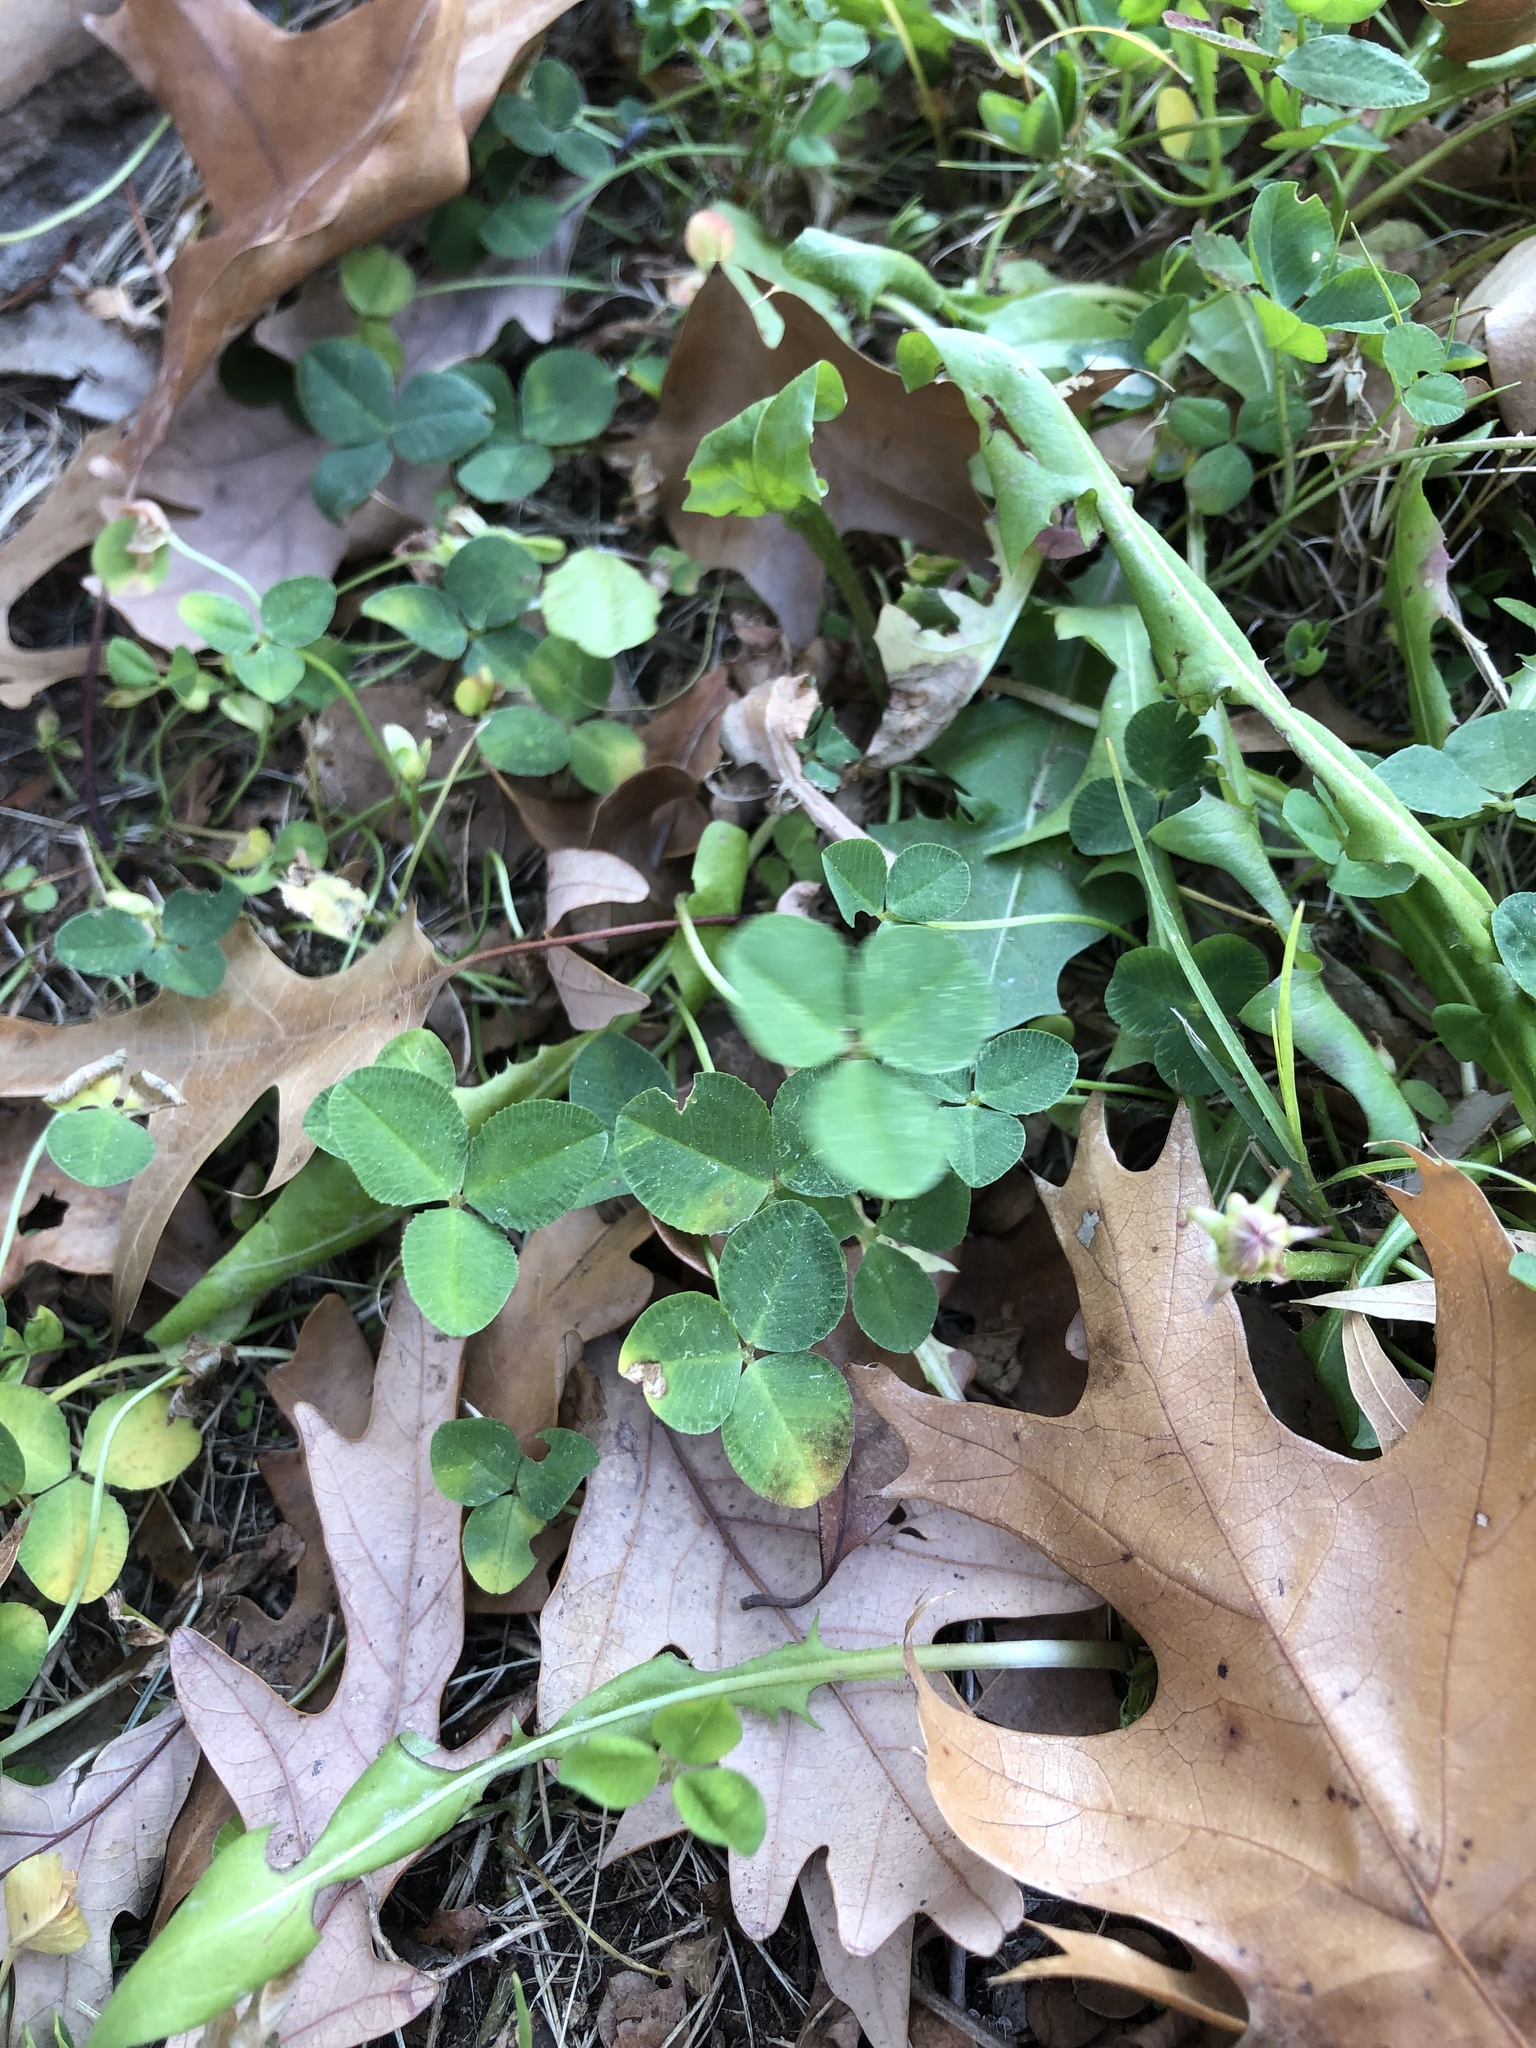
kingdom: Plantae
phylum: Tracheophyta
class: Magnoliopsida
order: Fabales
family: Fabaceae
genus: Trifolium
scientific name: Trifolium repens
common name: White clover
